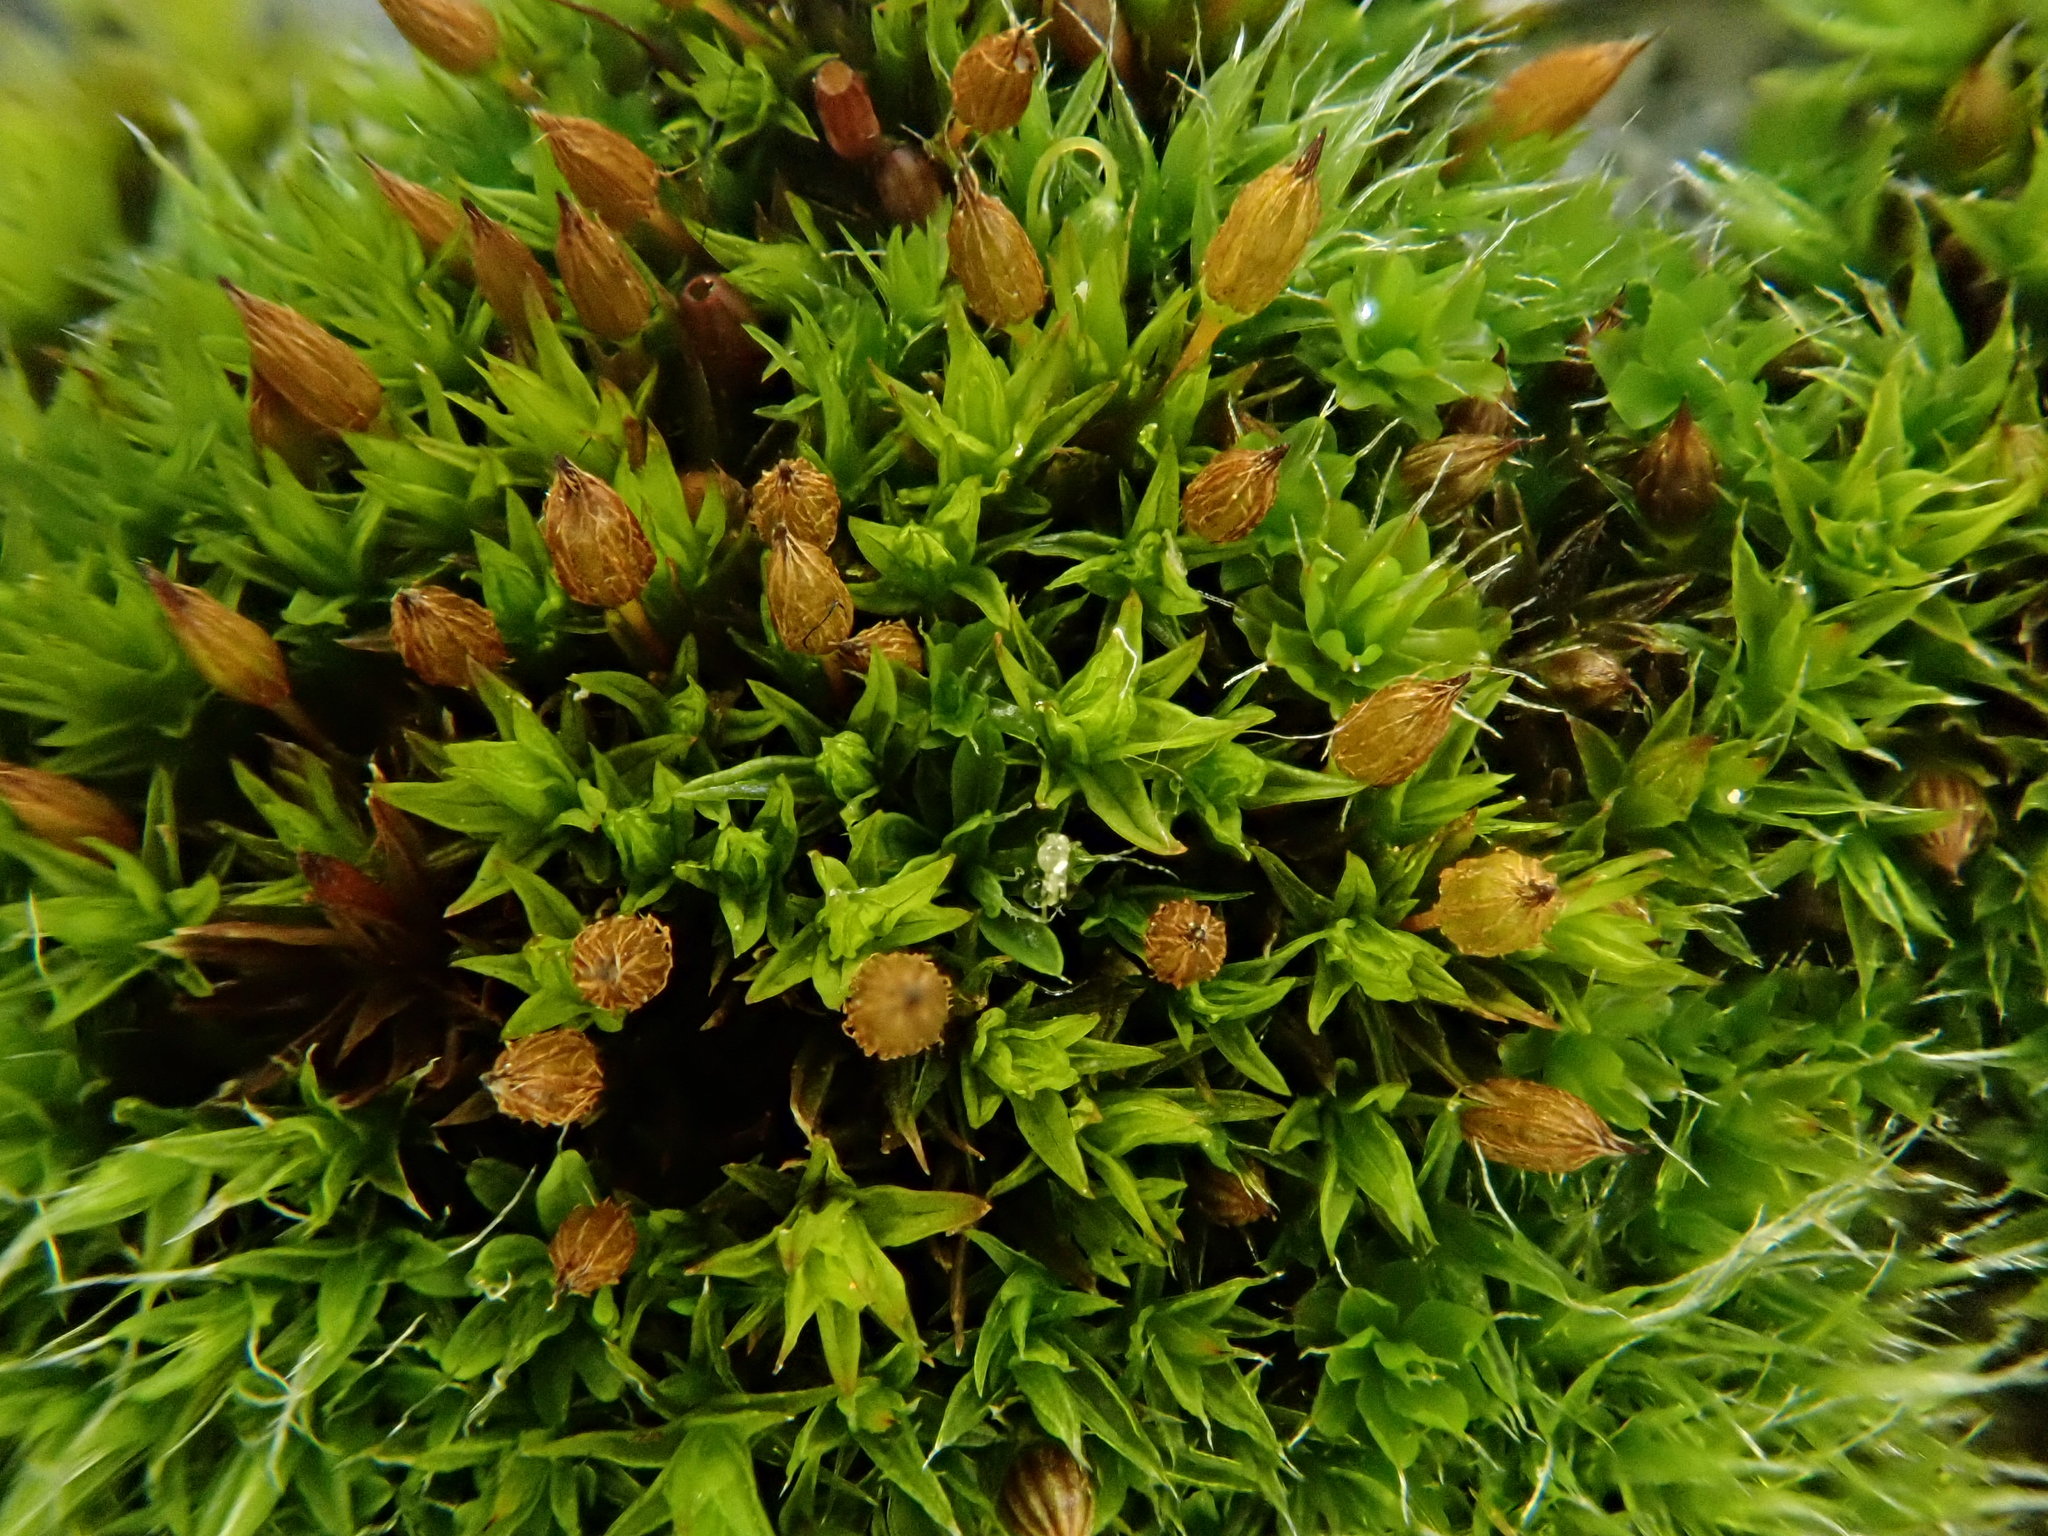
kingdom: Plantae
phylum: Bryophyta
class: Bryopsida
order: Orthotrichales
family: Orthotrichaceae
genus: Orthotrichum
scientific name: Orthotrichum anomalum
